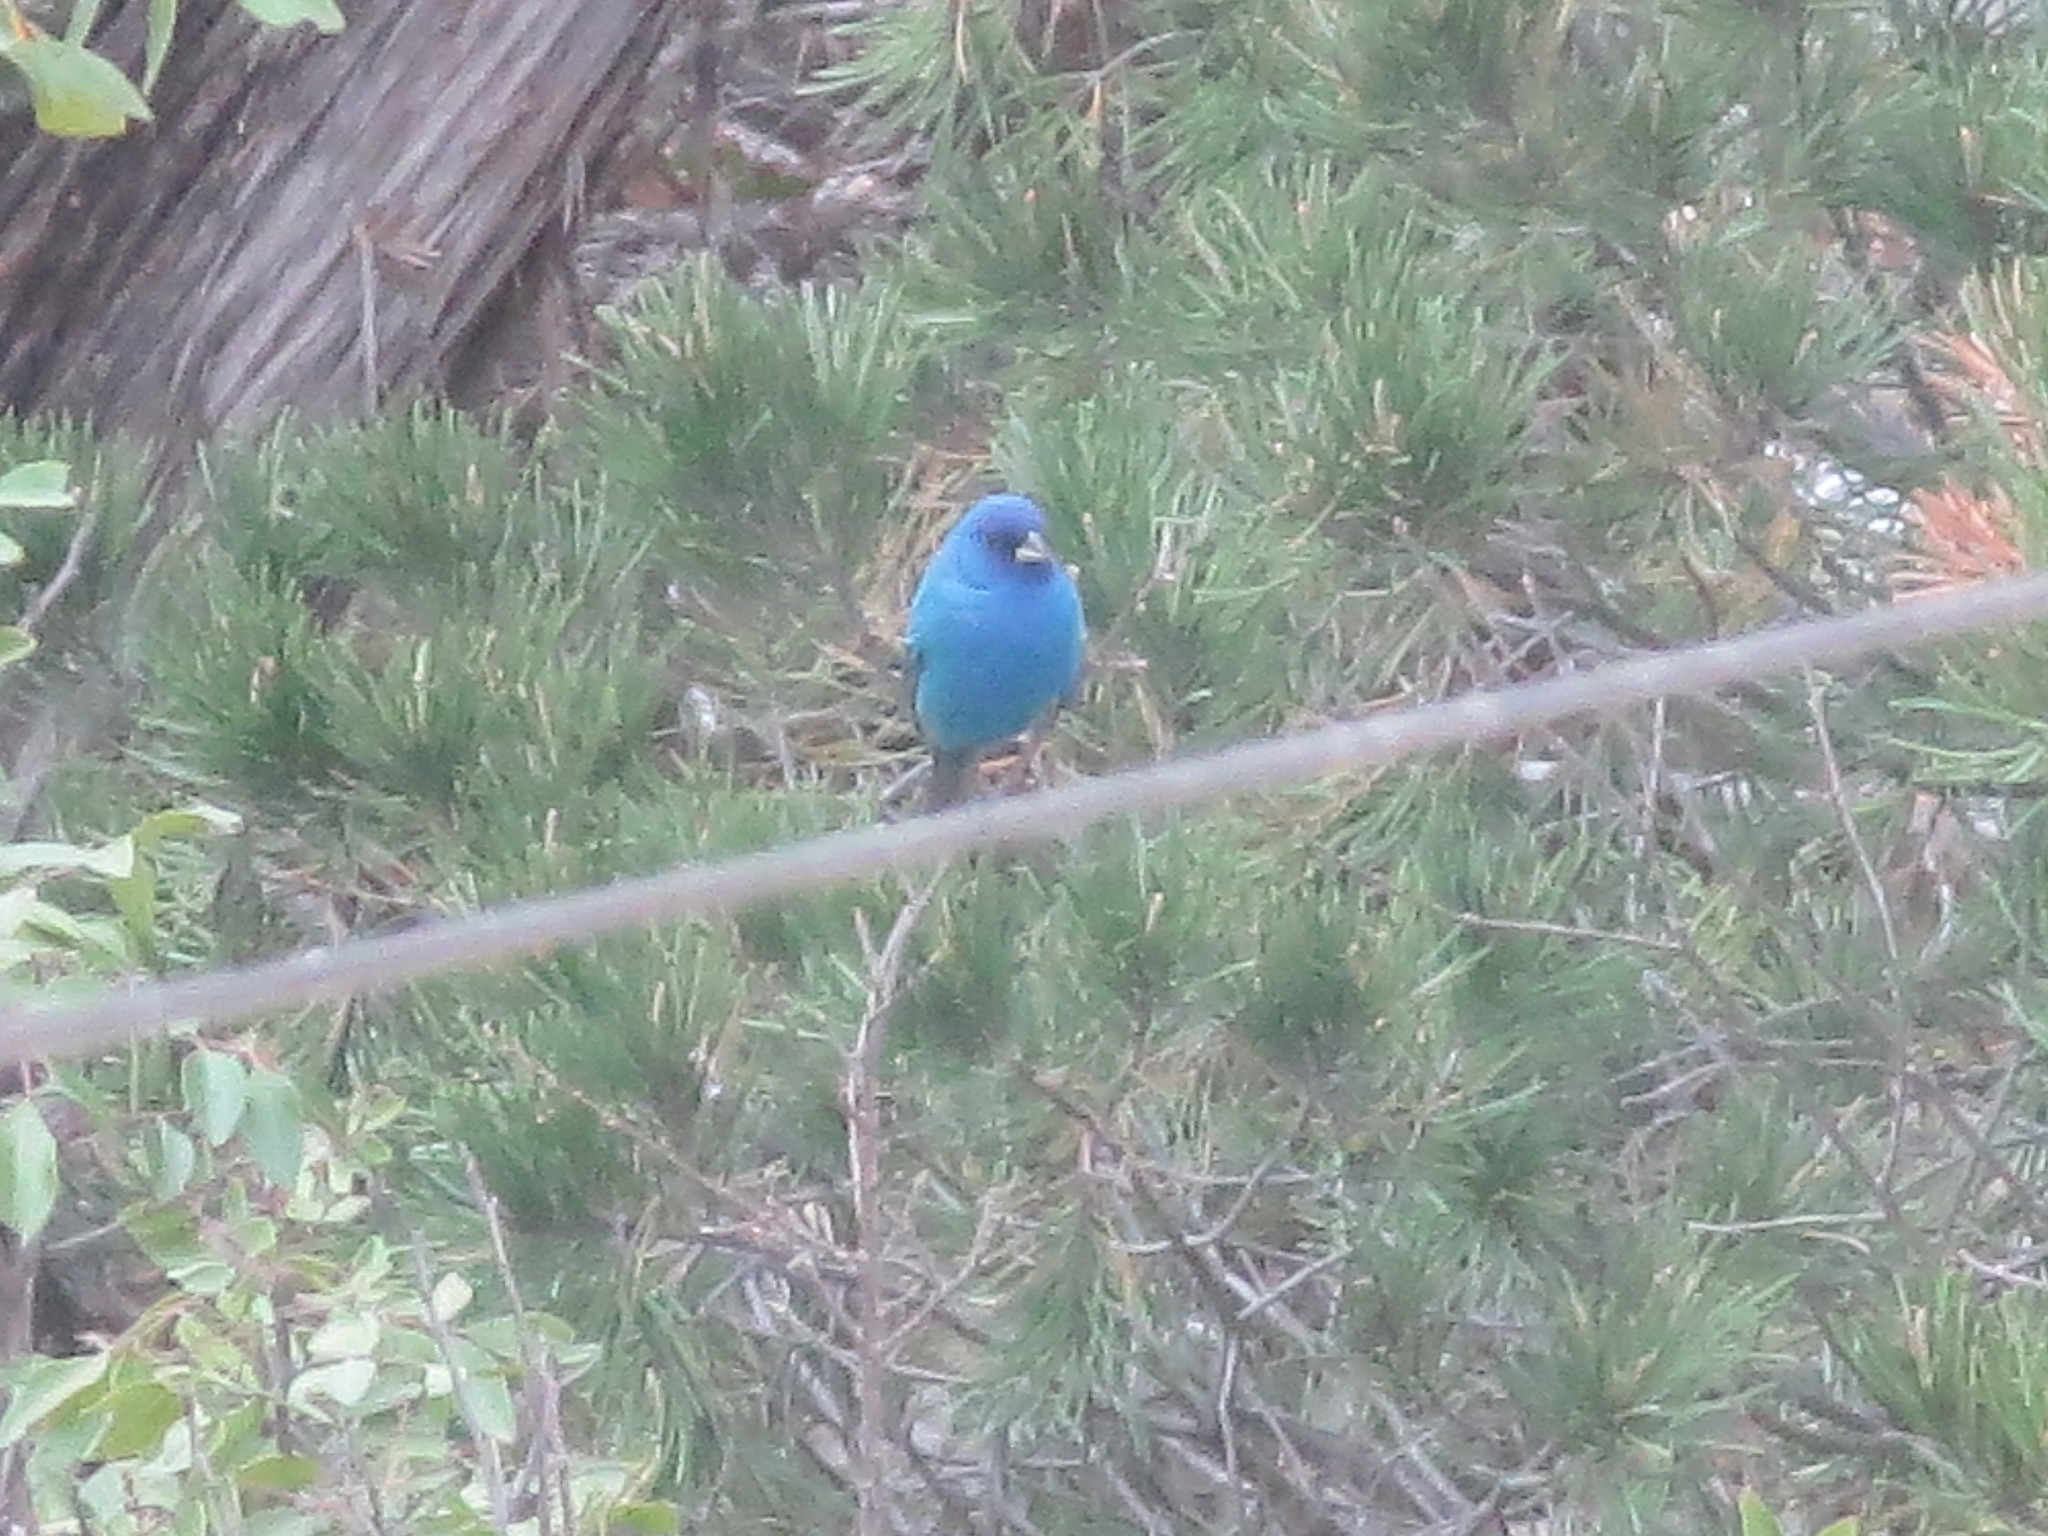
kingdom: Animalia
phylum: Chordata
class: Aves
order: Passeriformes
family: Cardinalidae
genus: Passerina
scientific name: Passerina cyanea
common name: Indigo bunting
